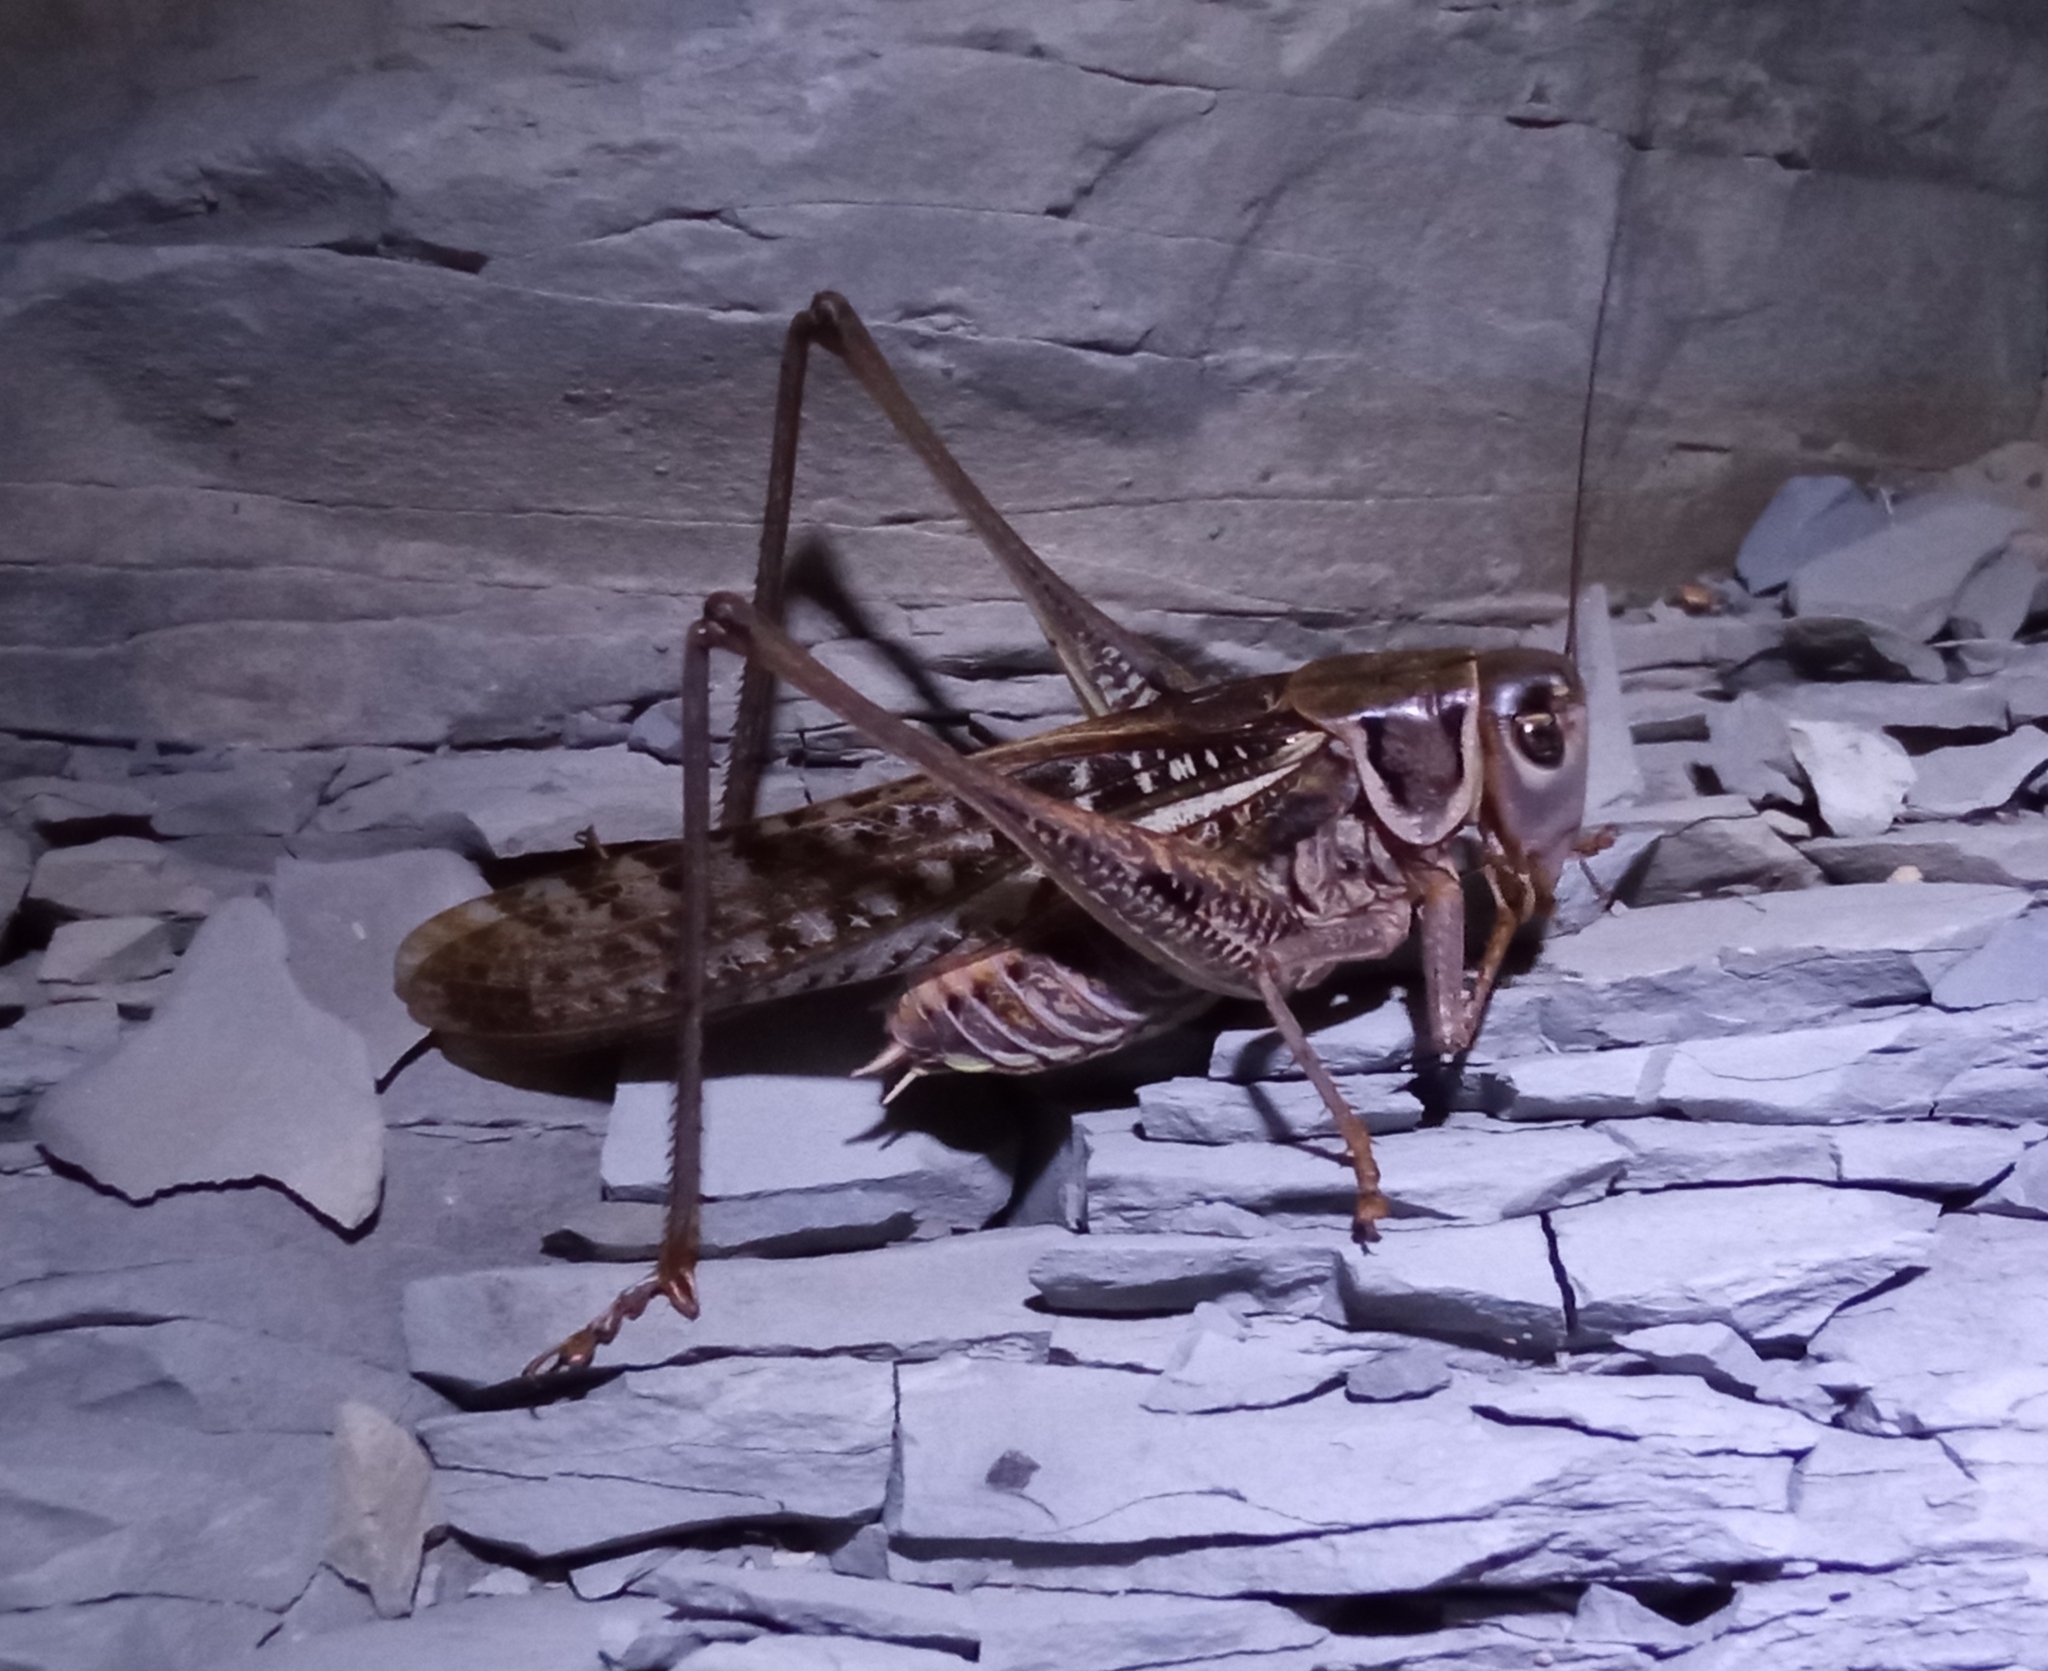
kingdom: Animalia
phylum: Arthropoda
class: Insecta
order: Orthoptera
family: Tettigoniidae
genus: Decticus
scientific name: Decticus albifrons
